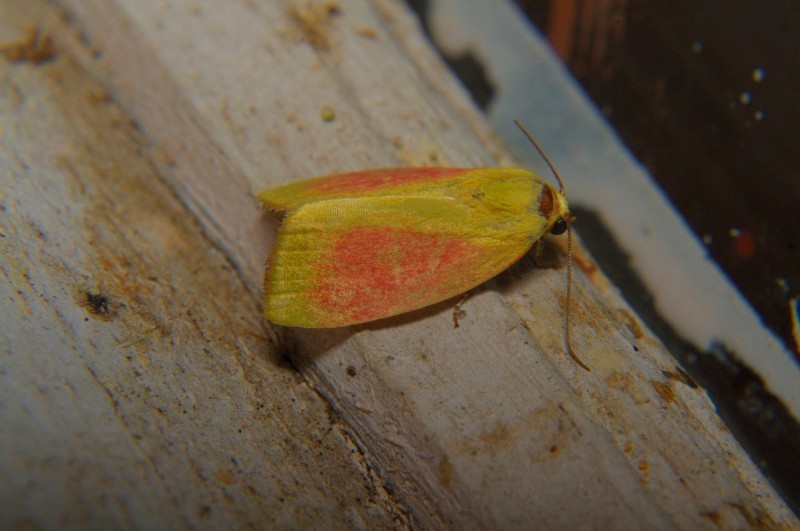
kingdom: Animalia
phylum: Arthropoda
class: Insecta
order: Lepidoptera
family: Nolidae
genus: Earias
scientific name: Earias roseifera
